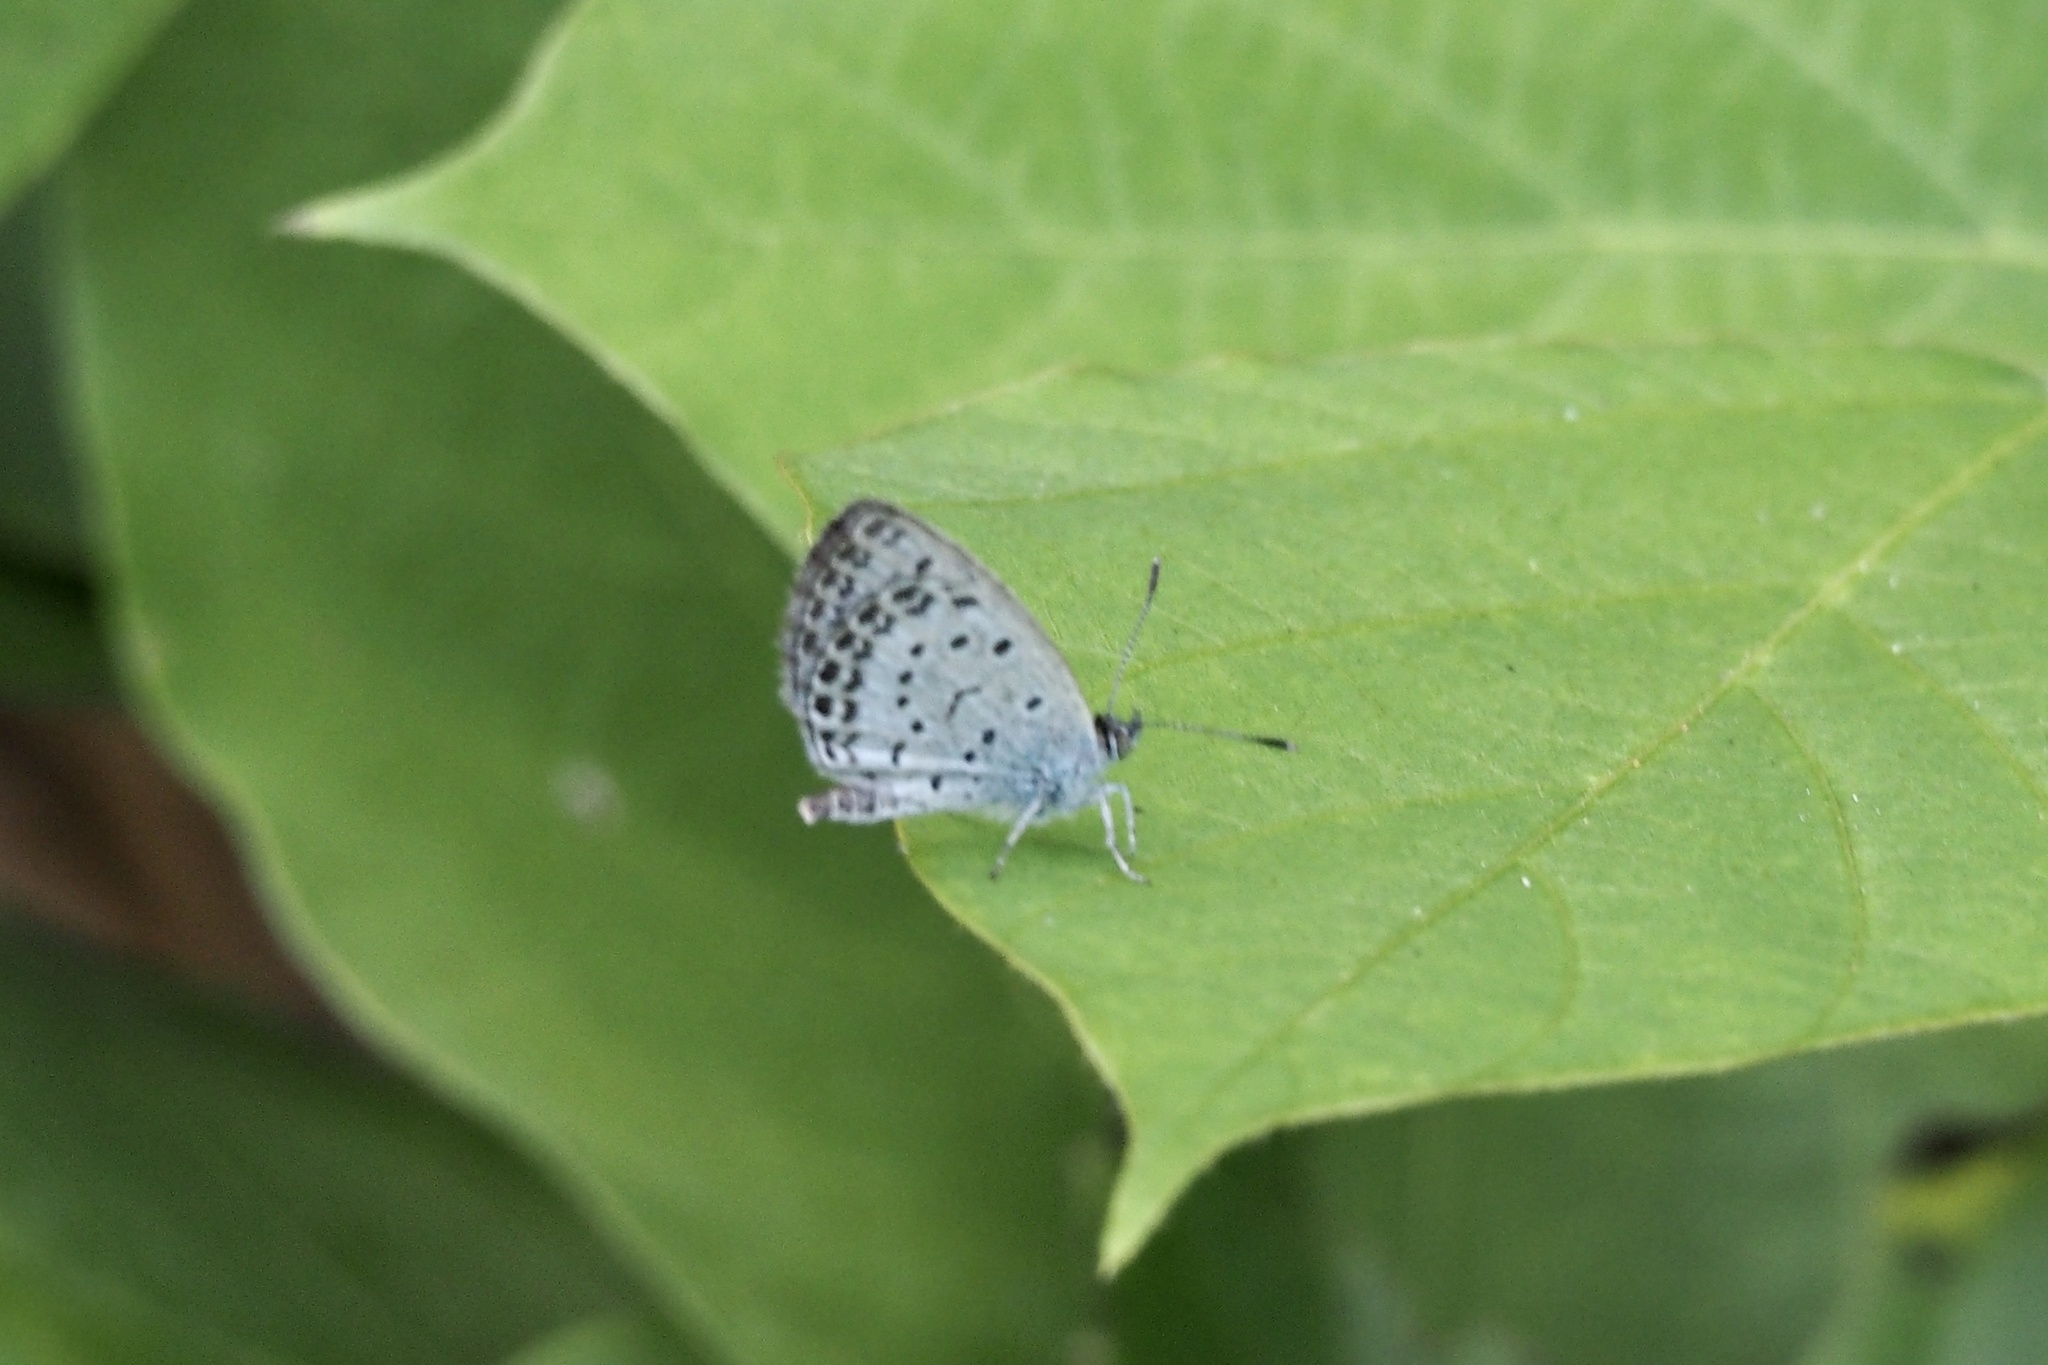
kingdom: Animalia
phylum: Arthropoda
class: Insecta
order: Lepidoptera
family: Lycaenidae
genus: Pseudozizeeria
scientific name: Pseudozizeeria maha
